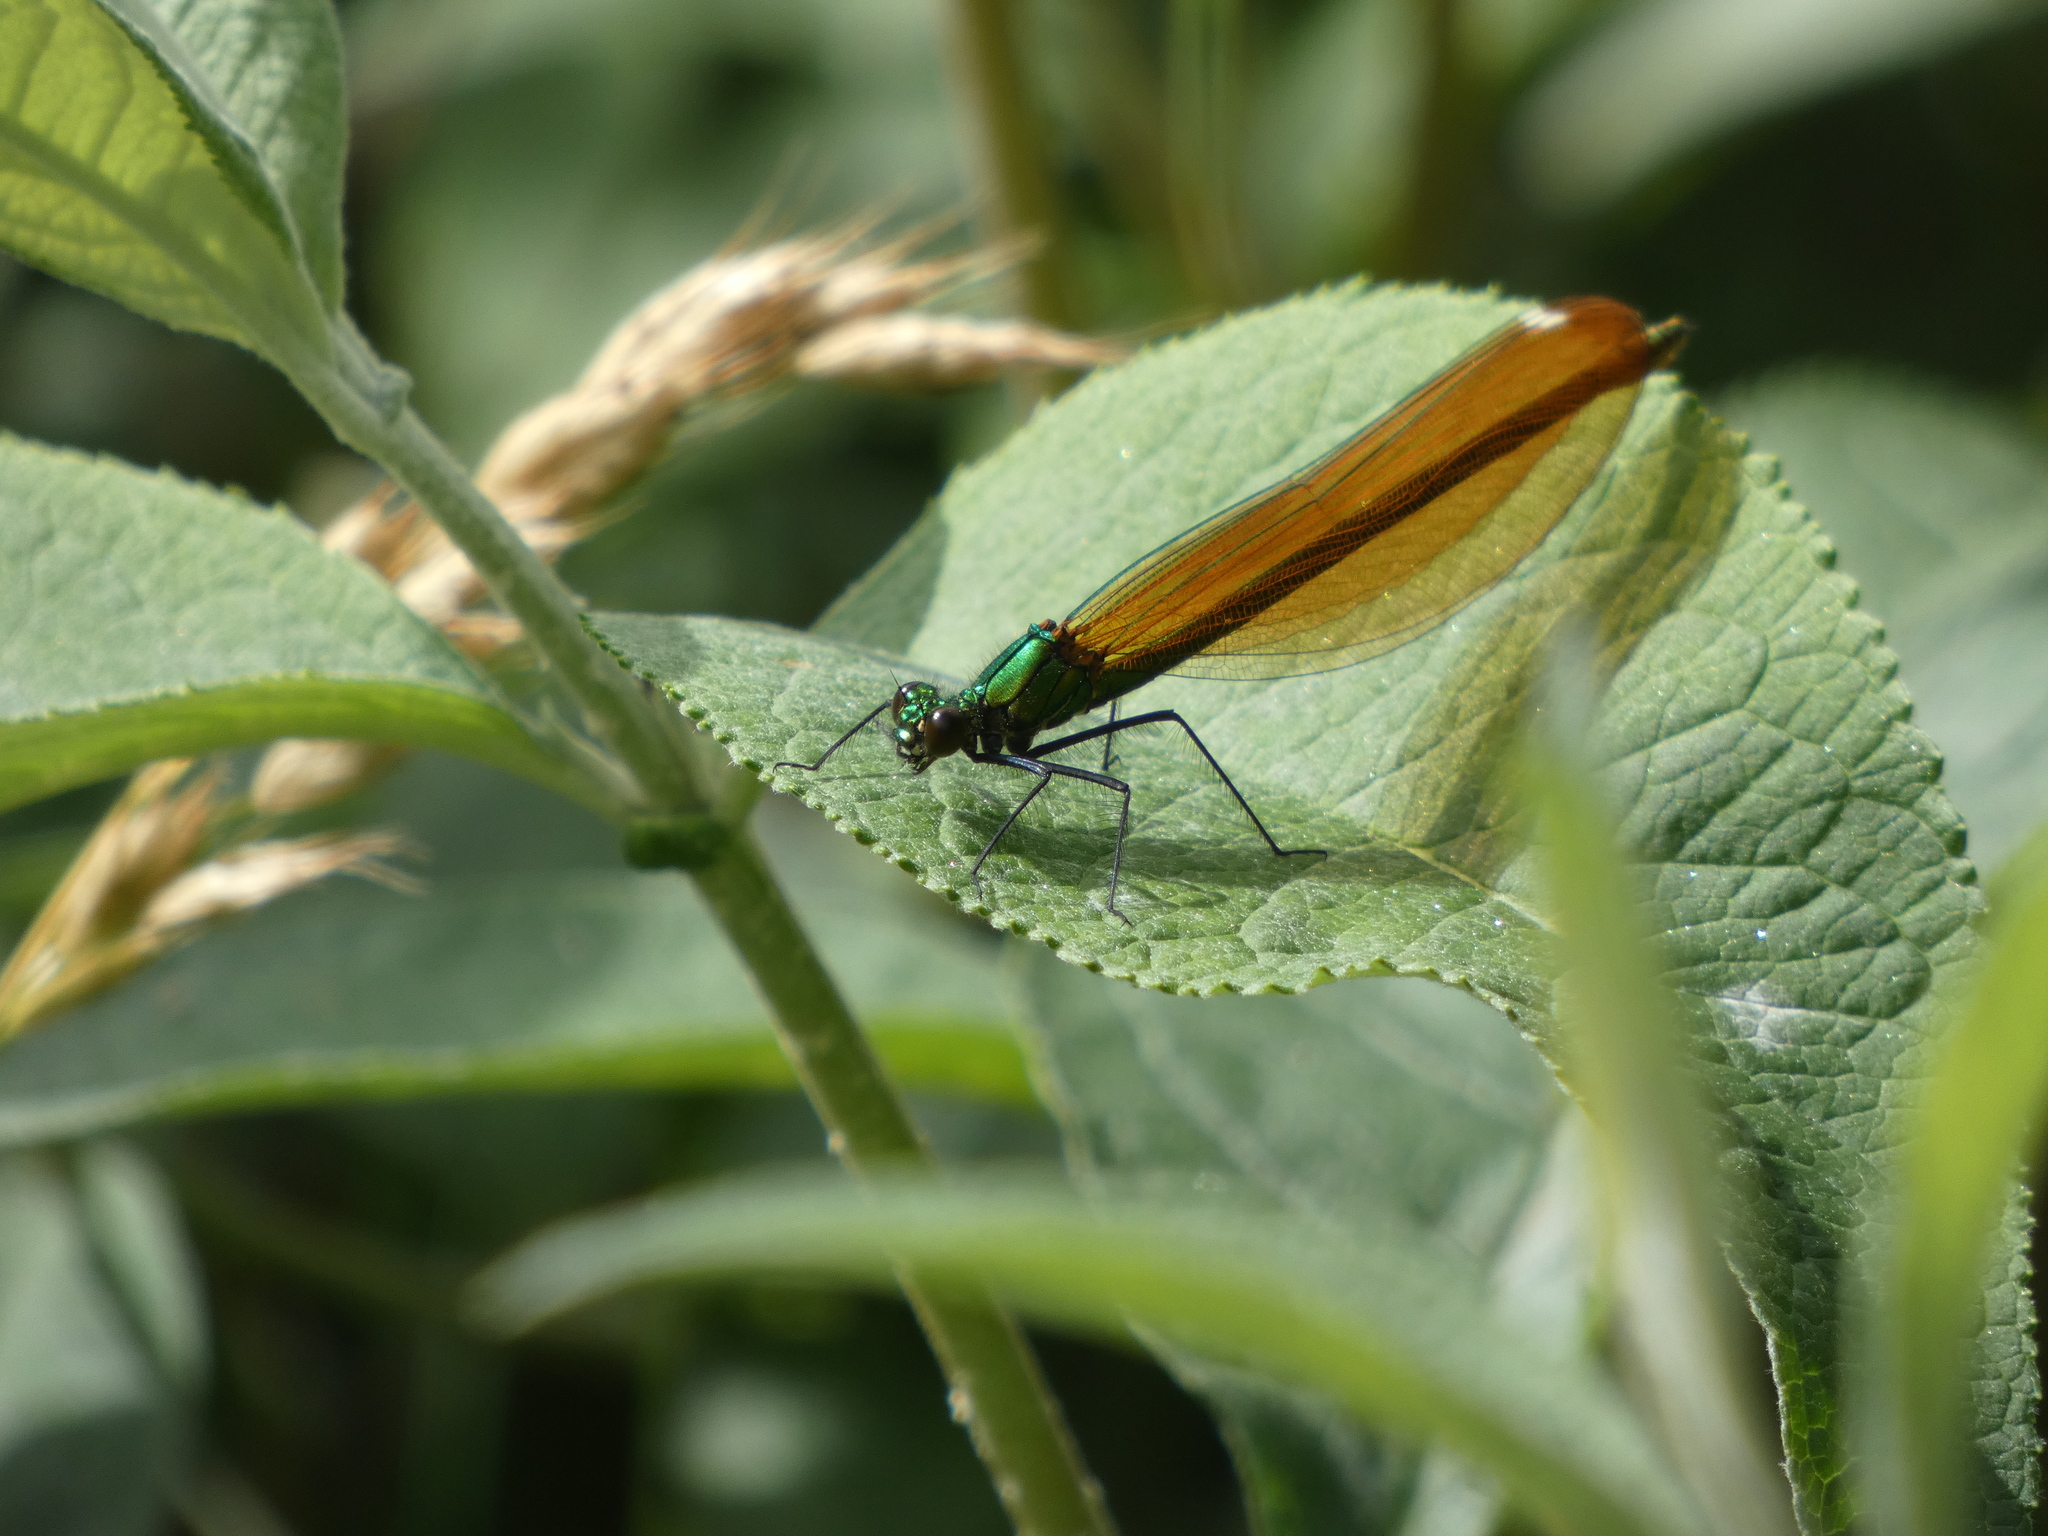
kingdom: Animalia
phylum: Arthropoda
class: Insecta
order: Odonata
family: Calopterygidae
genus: Calopteryx
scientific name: Calopteryx virgo
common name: Beautiful demoiselle
